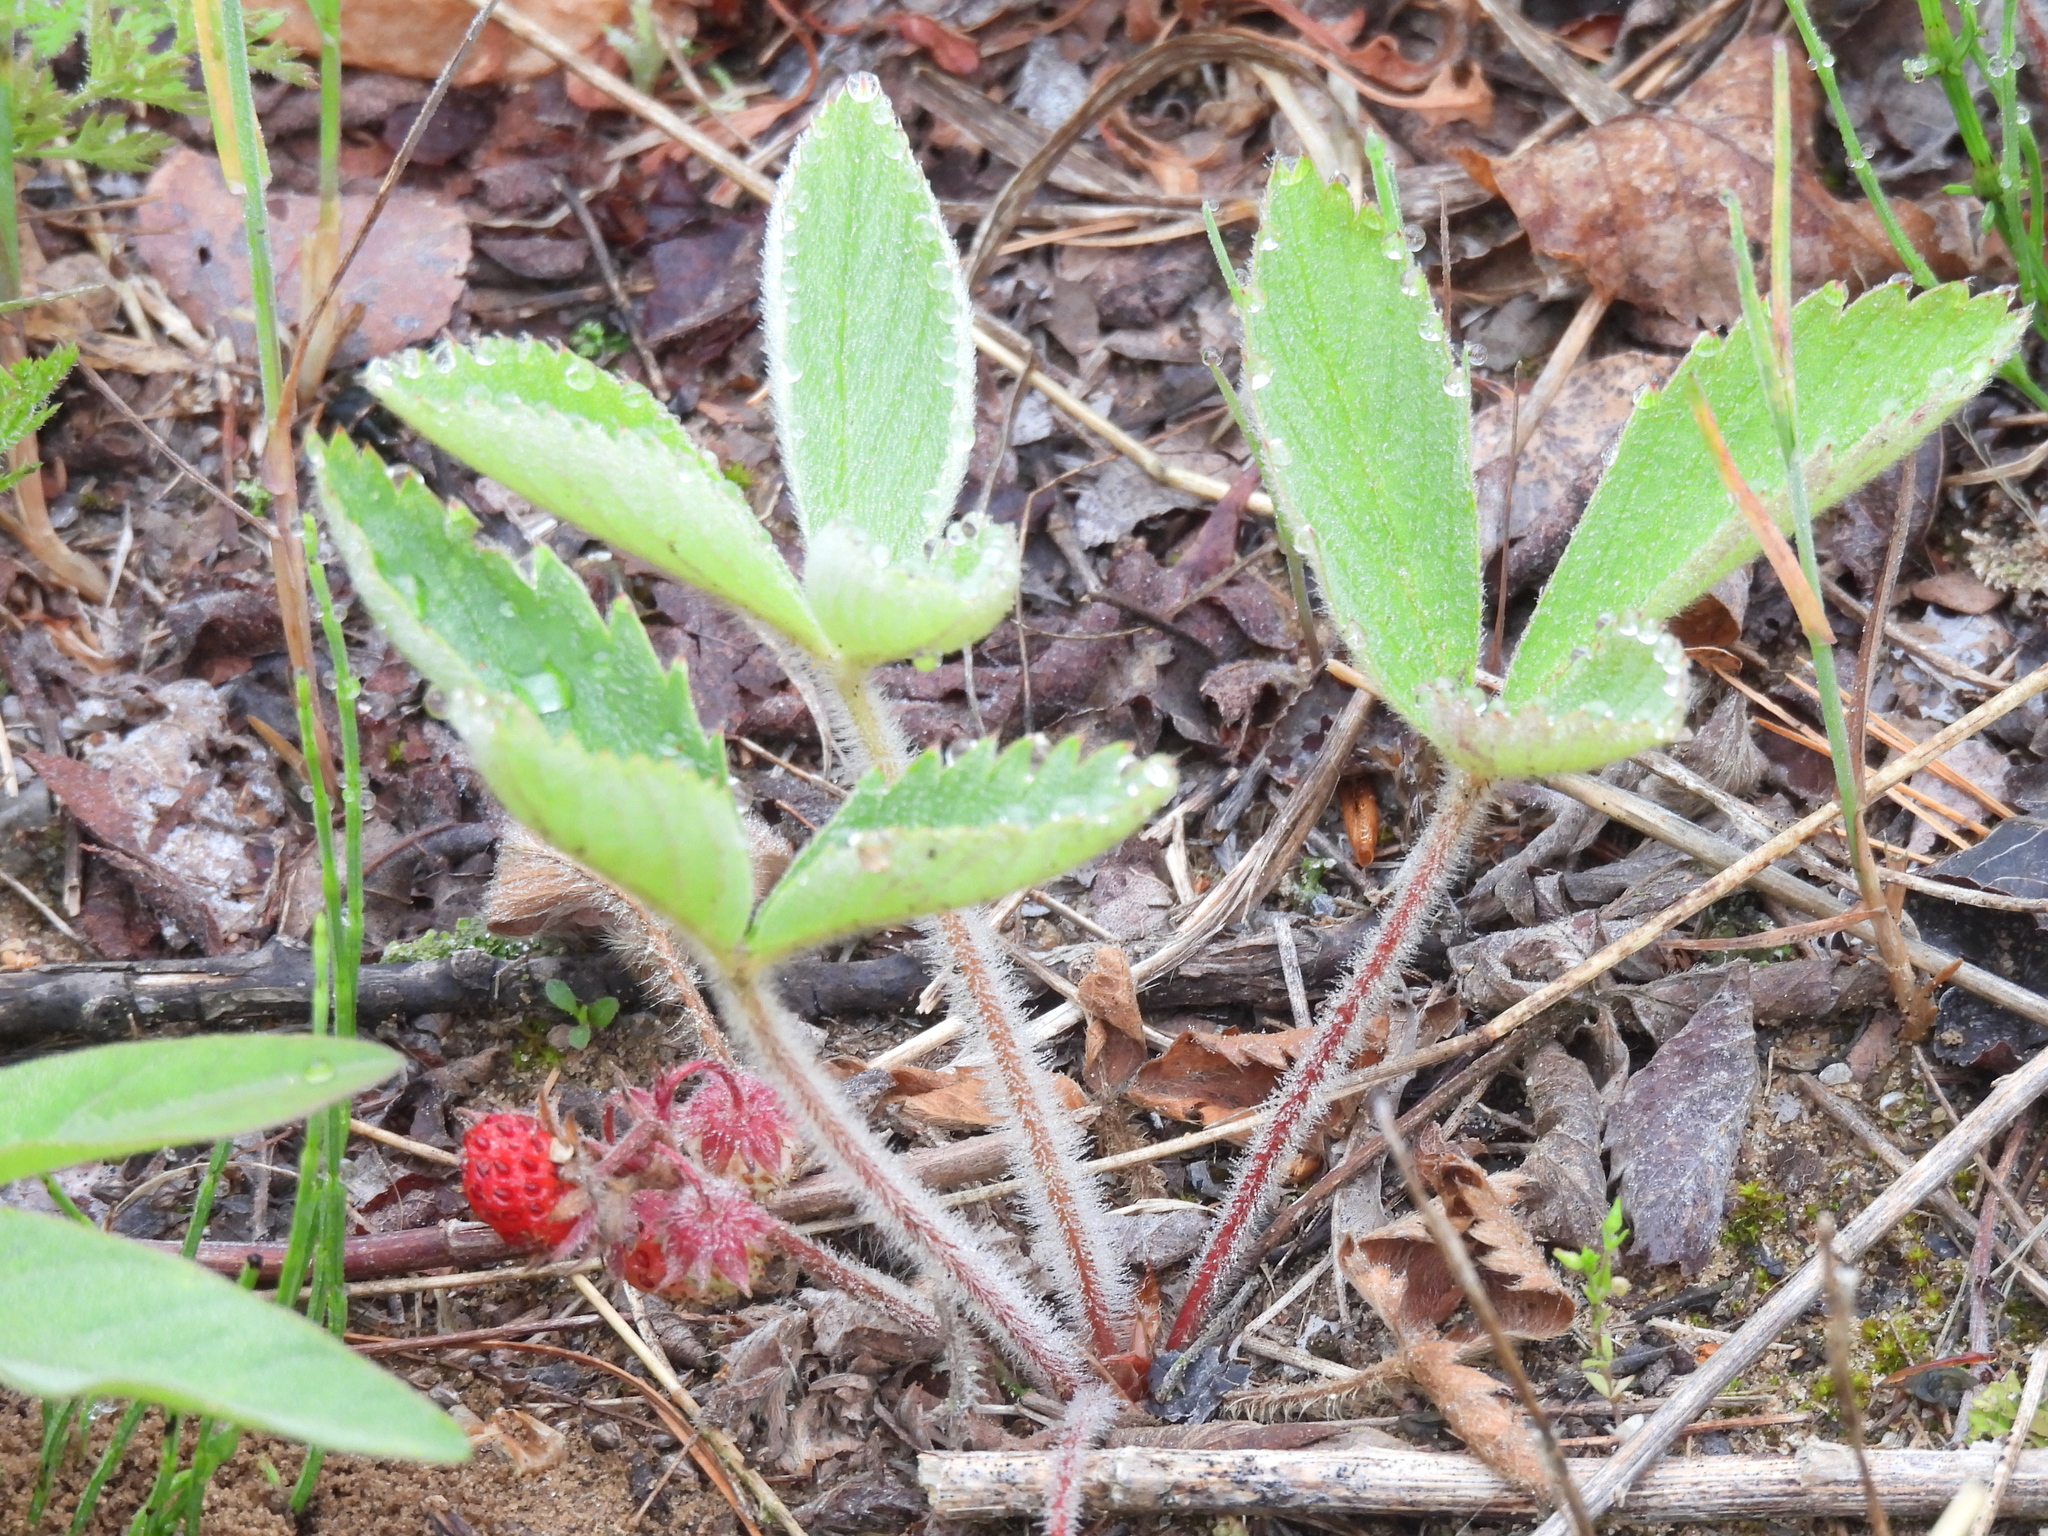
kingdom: Plantae
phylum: Tracheophyta
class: Magnoliopsida
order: Rosales
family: Rosaceae
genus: Fragaria
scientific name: Fragaria virginiana
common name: Thickleaved wild strawberry
